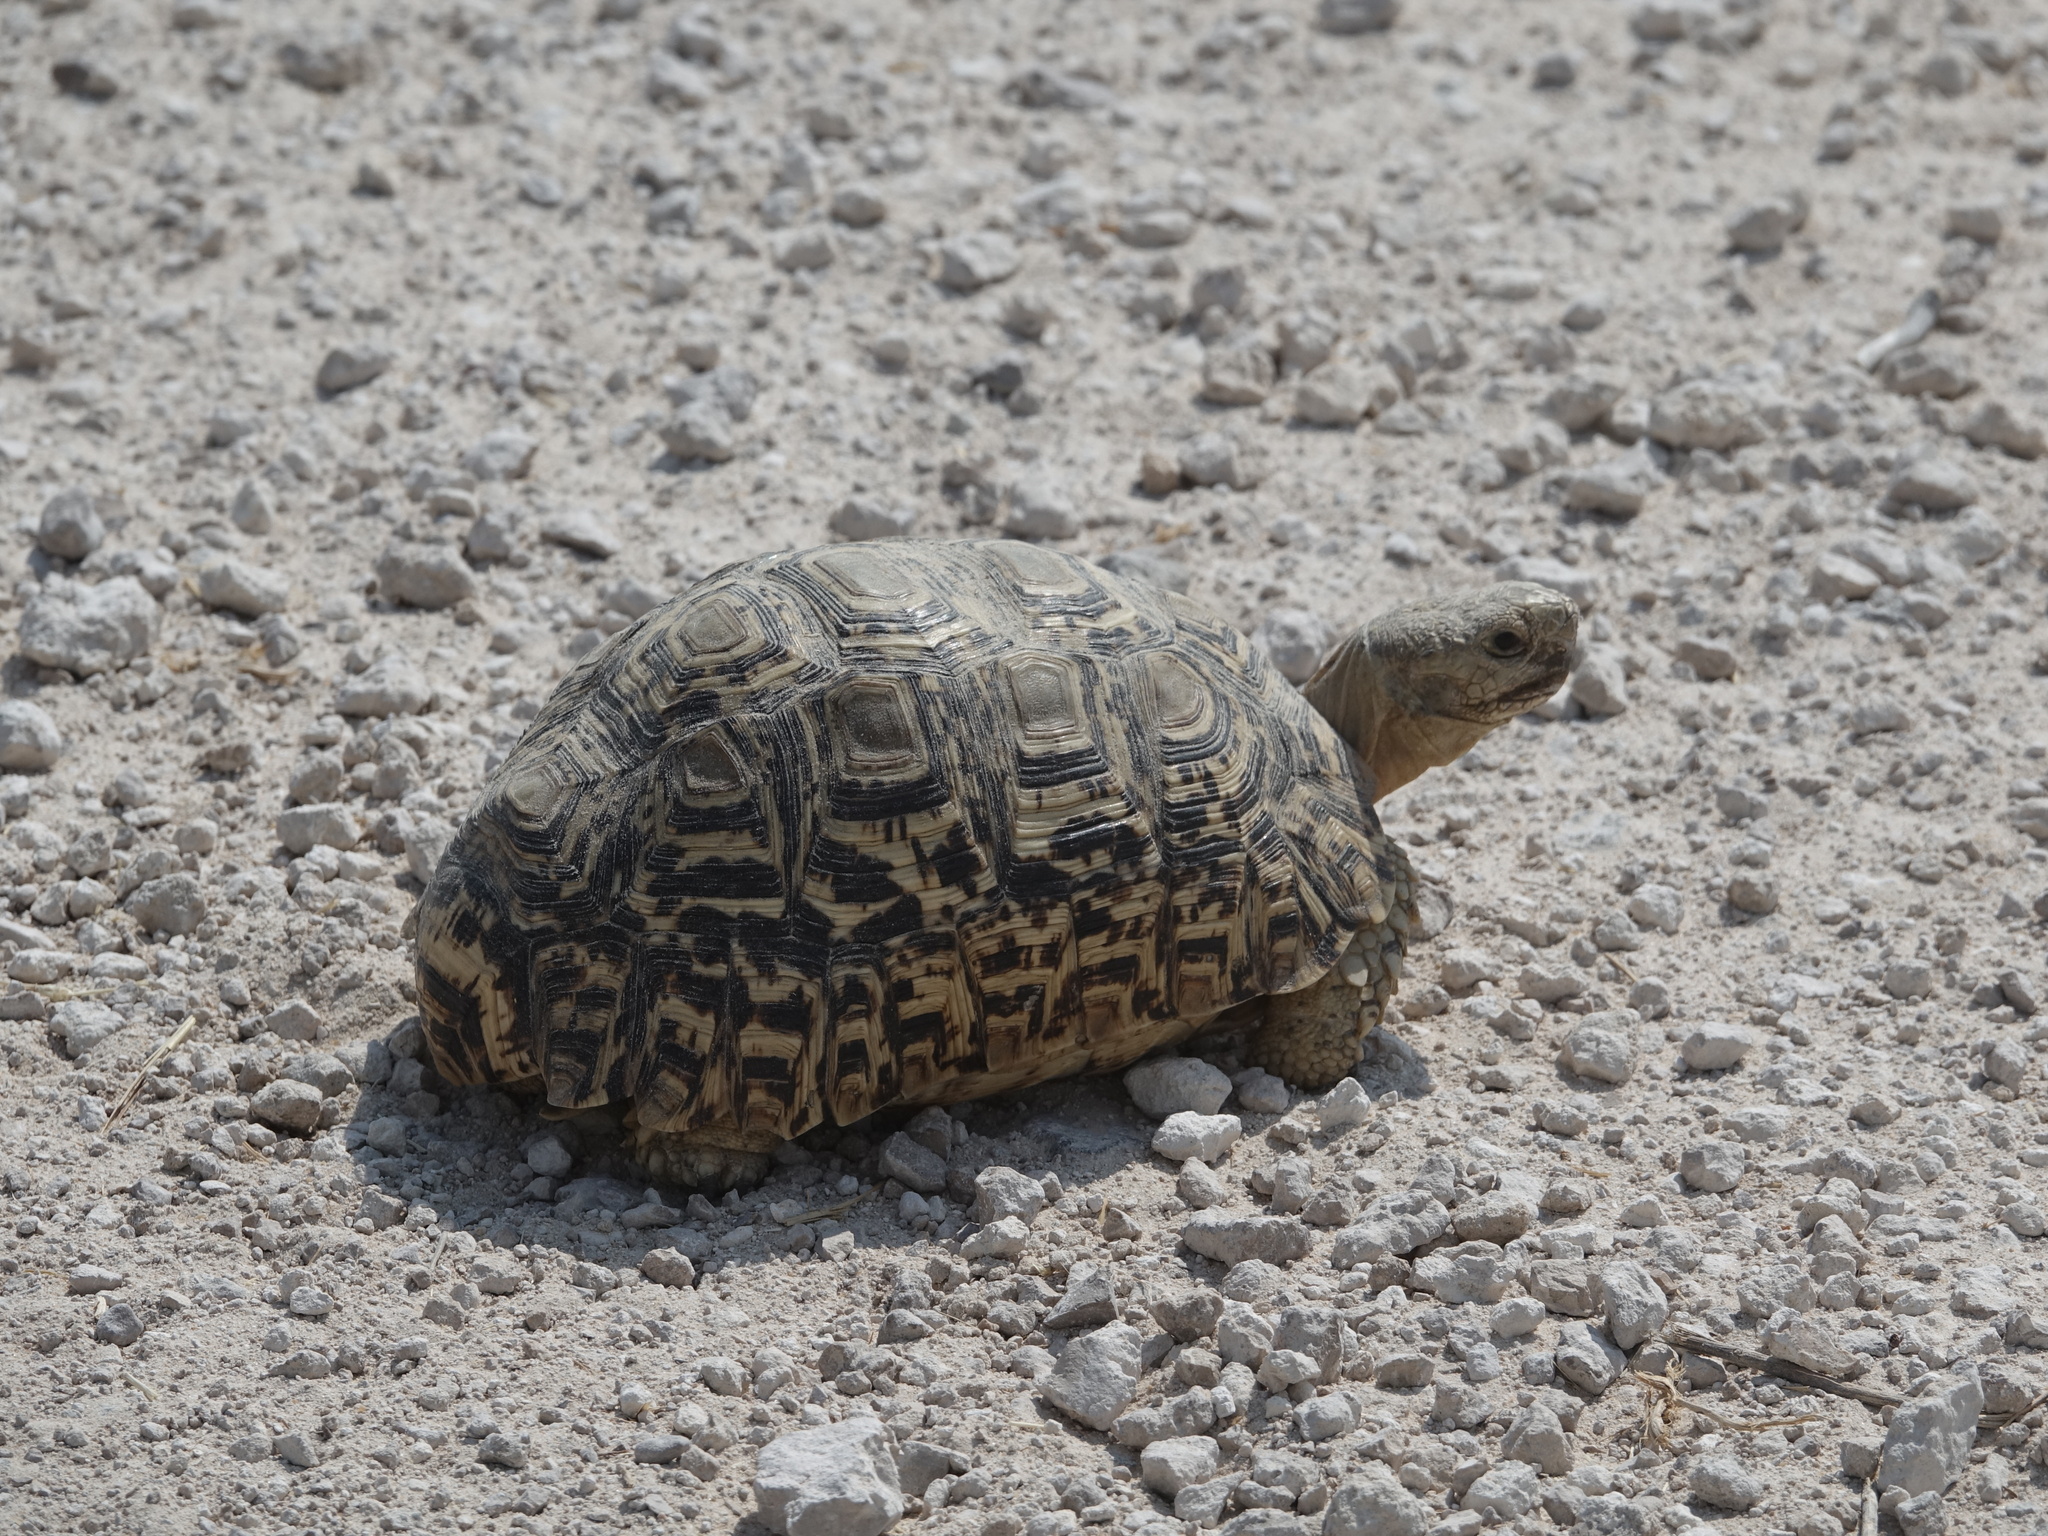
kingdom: Animalia
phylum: Chordata
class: Testudines
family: Testudinidae
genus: Stigmochelys
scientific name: Stigmochelys pardalis
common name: Leopard tortoise
